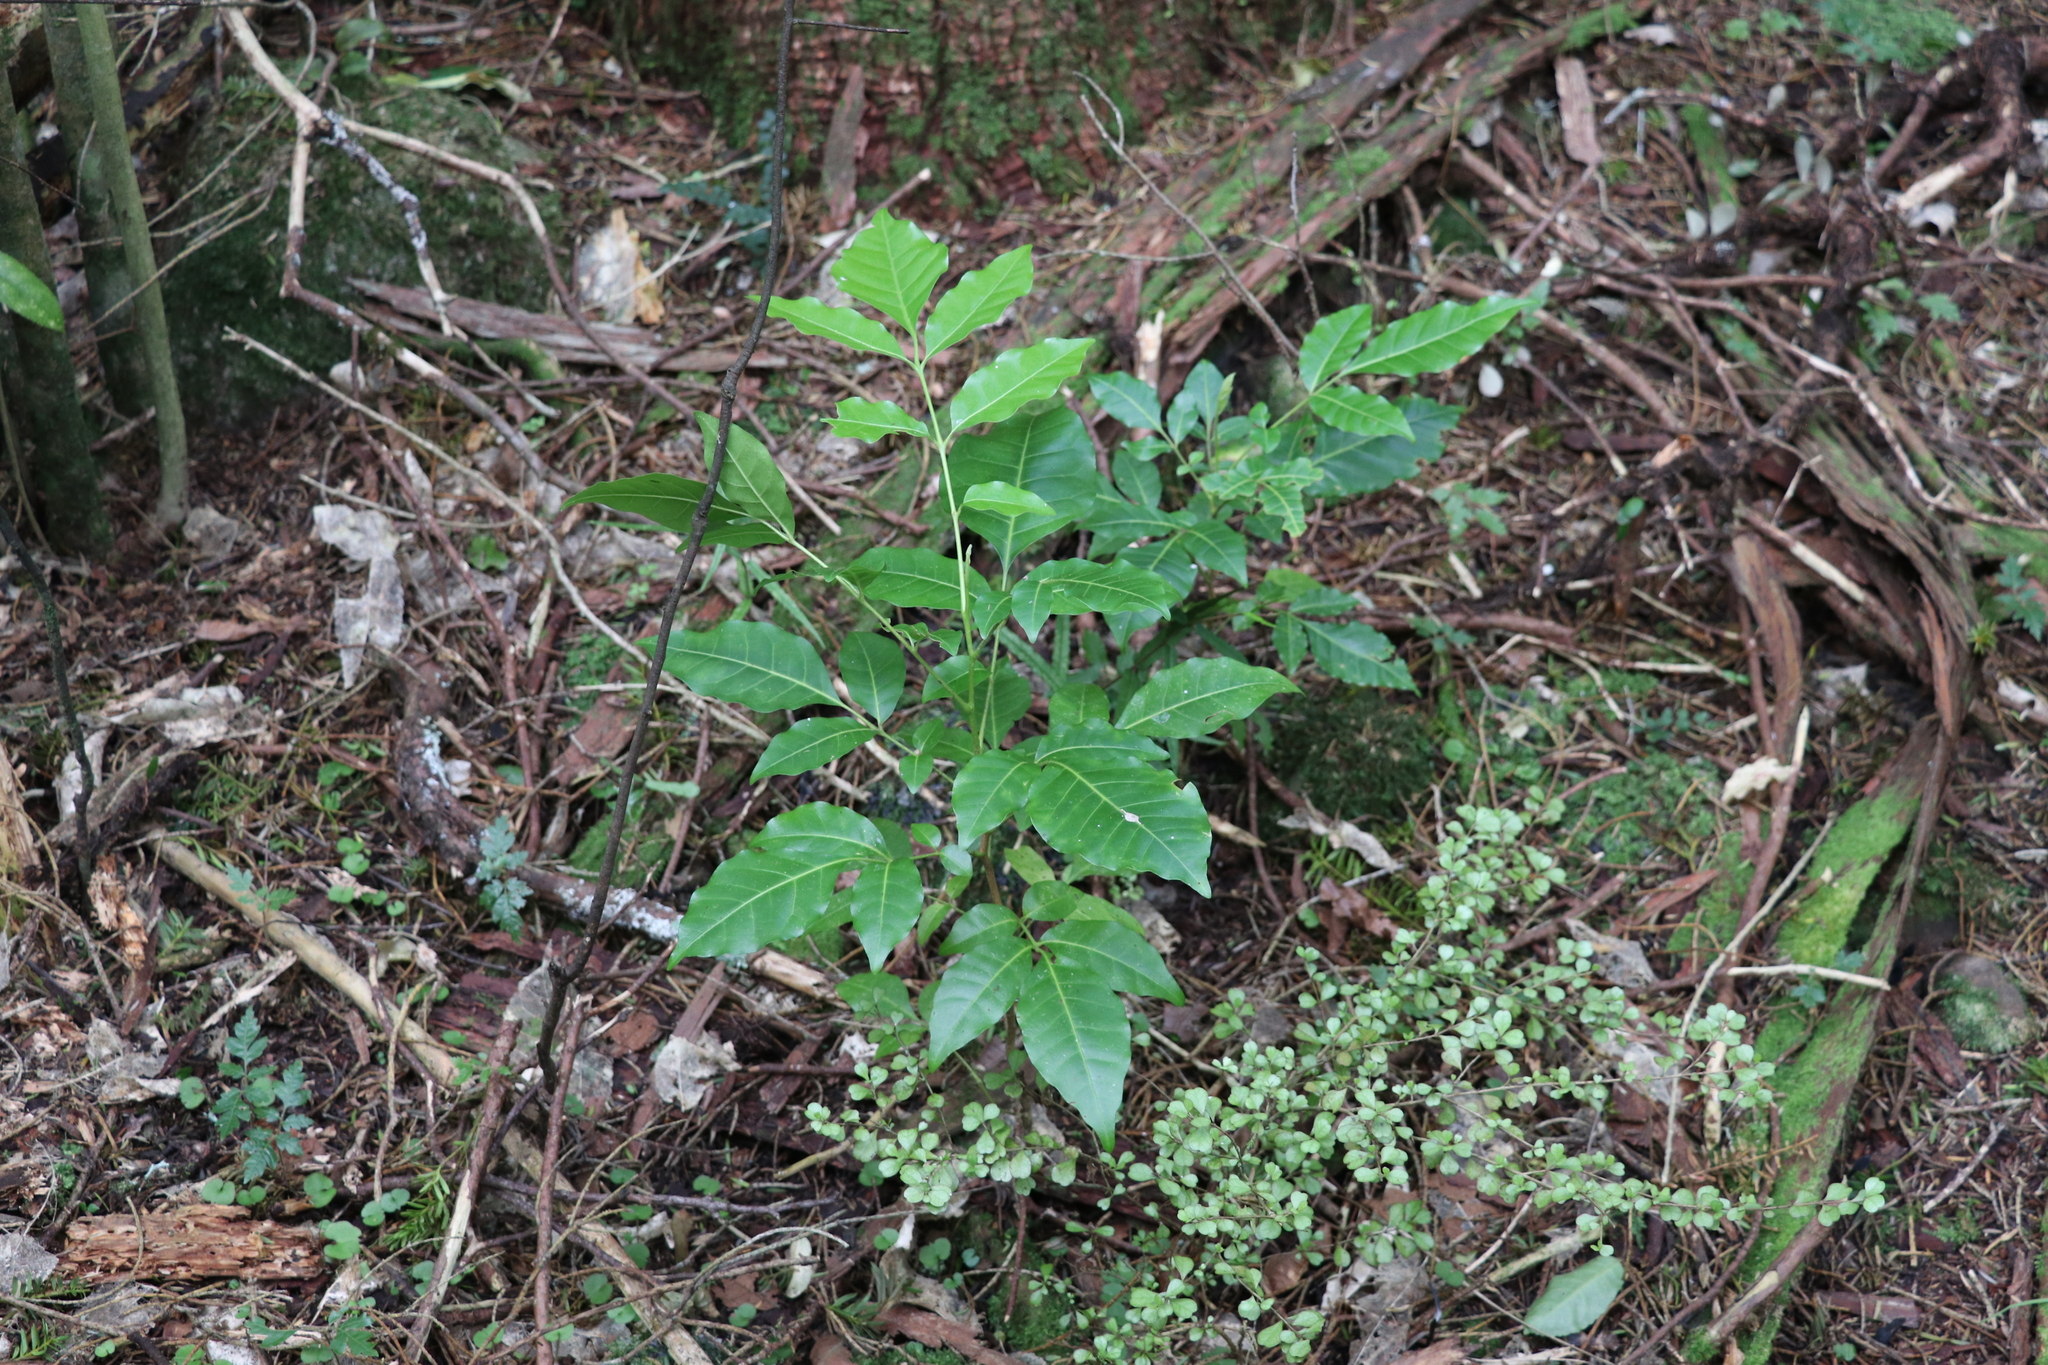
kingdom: Plantae
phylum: Tracheophyta
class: Magnoliopsida
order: Sapindales
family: Meliaceae
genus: Didymocheton
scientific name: Didymocheton spectabilis
